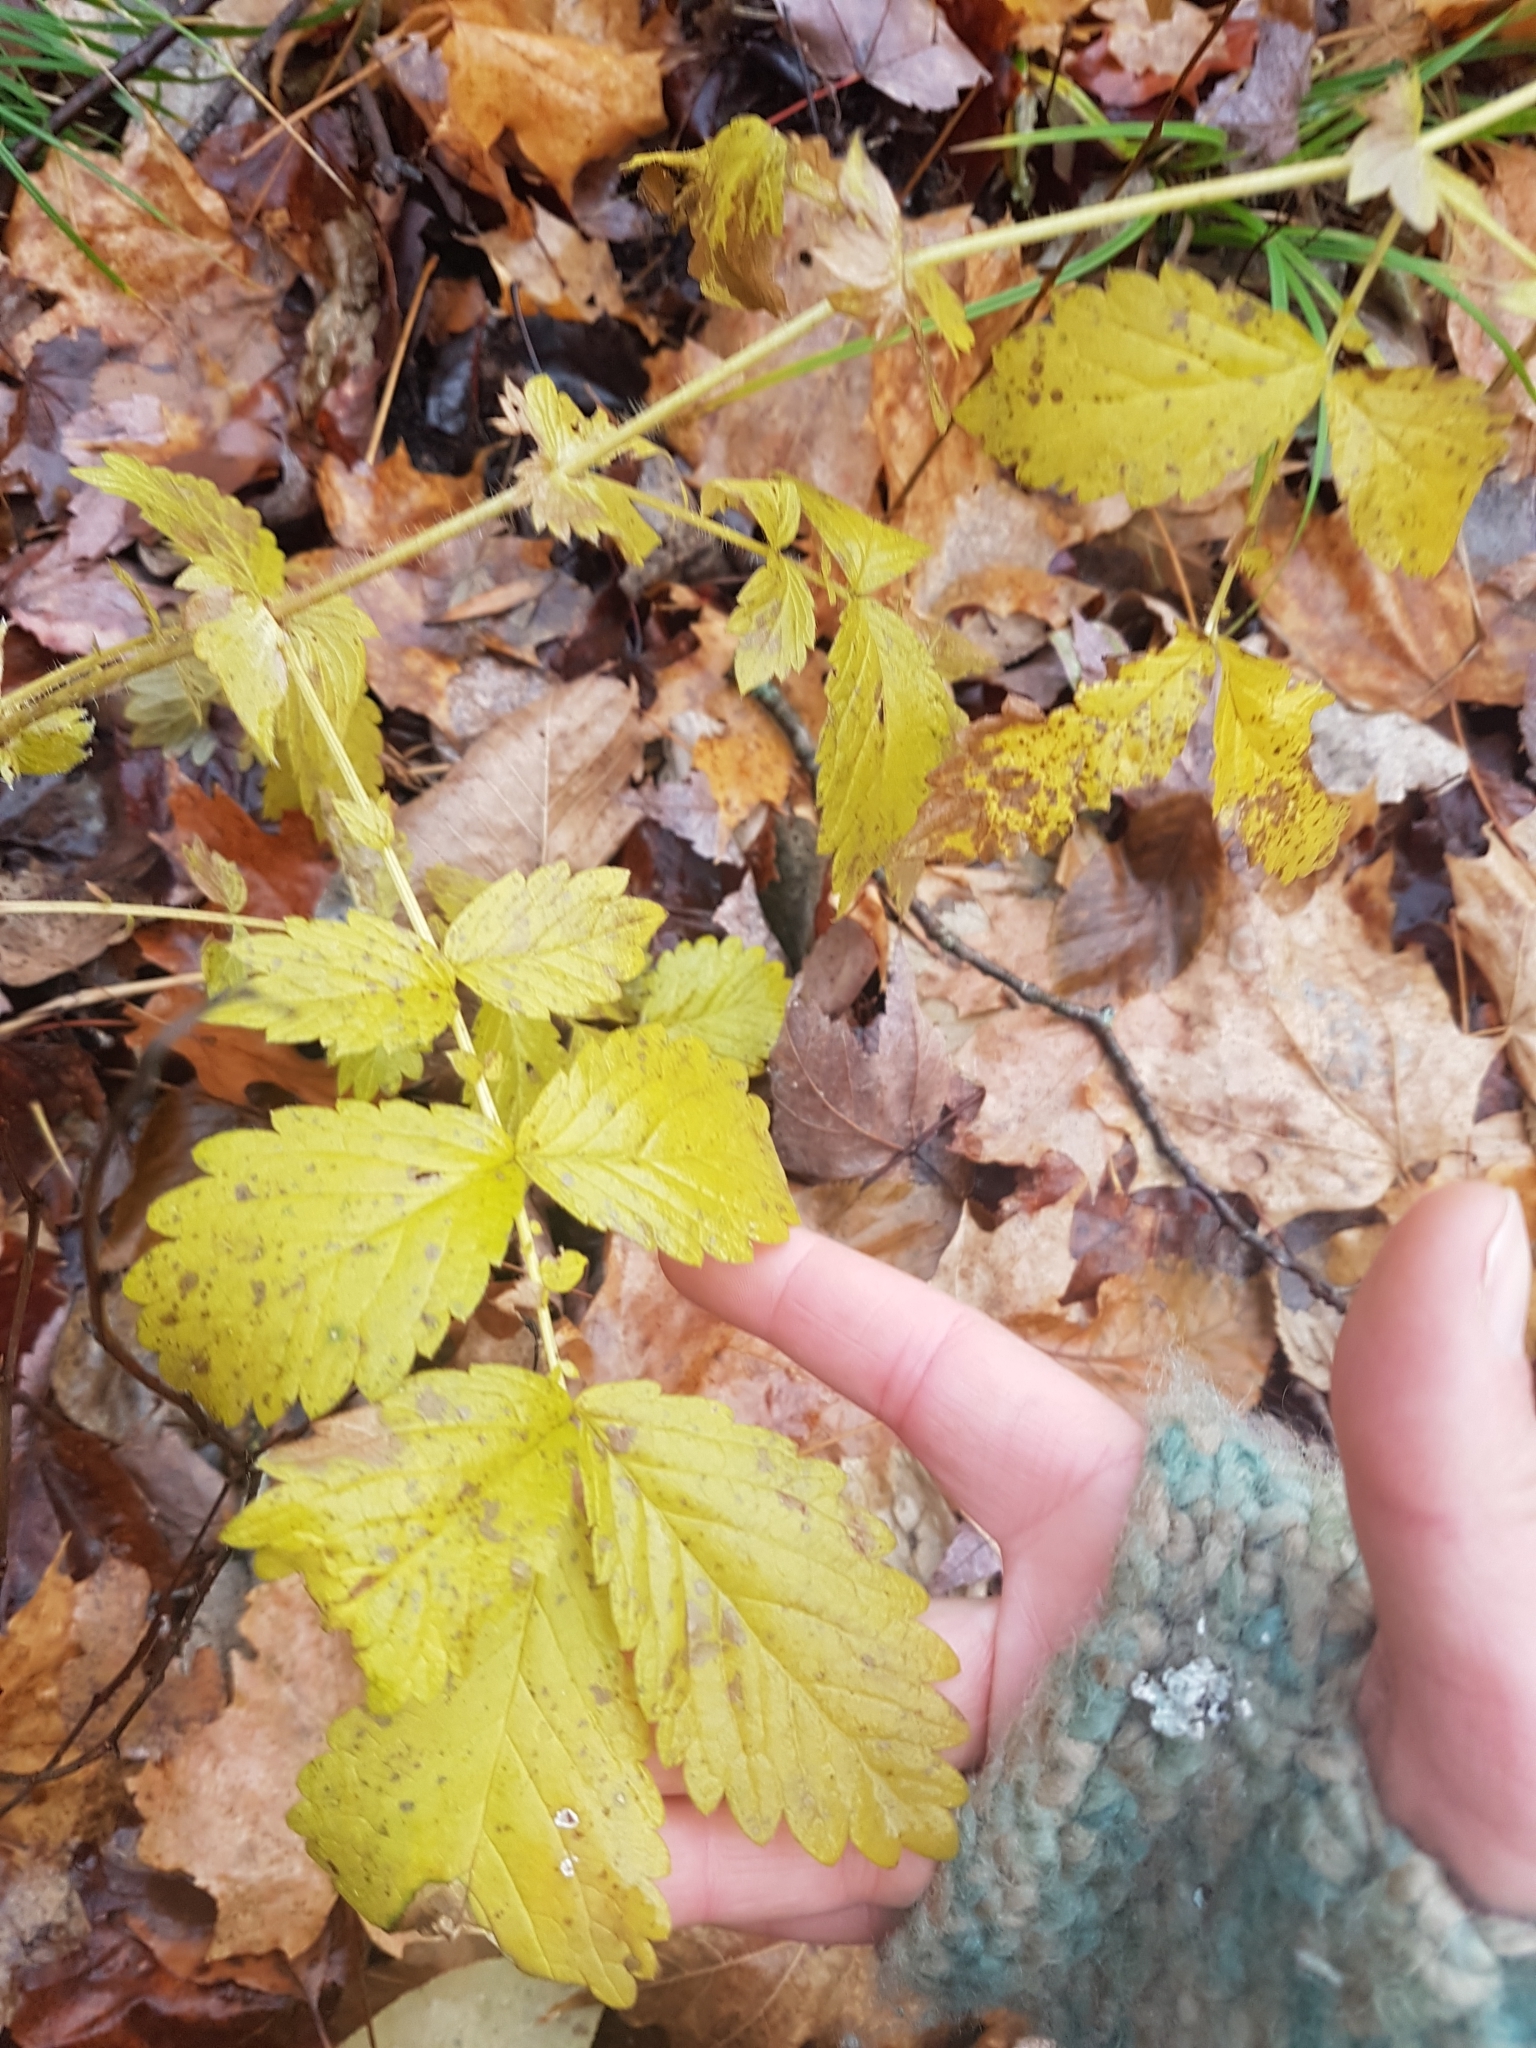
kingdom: Plantae
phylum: Tracheophyta
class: Magnoliopsida
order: Rosales
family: Rosaceae
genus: Agrimonia
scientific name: Agrimonia gryposepala
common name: Common agrimony
